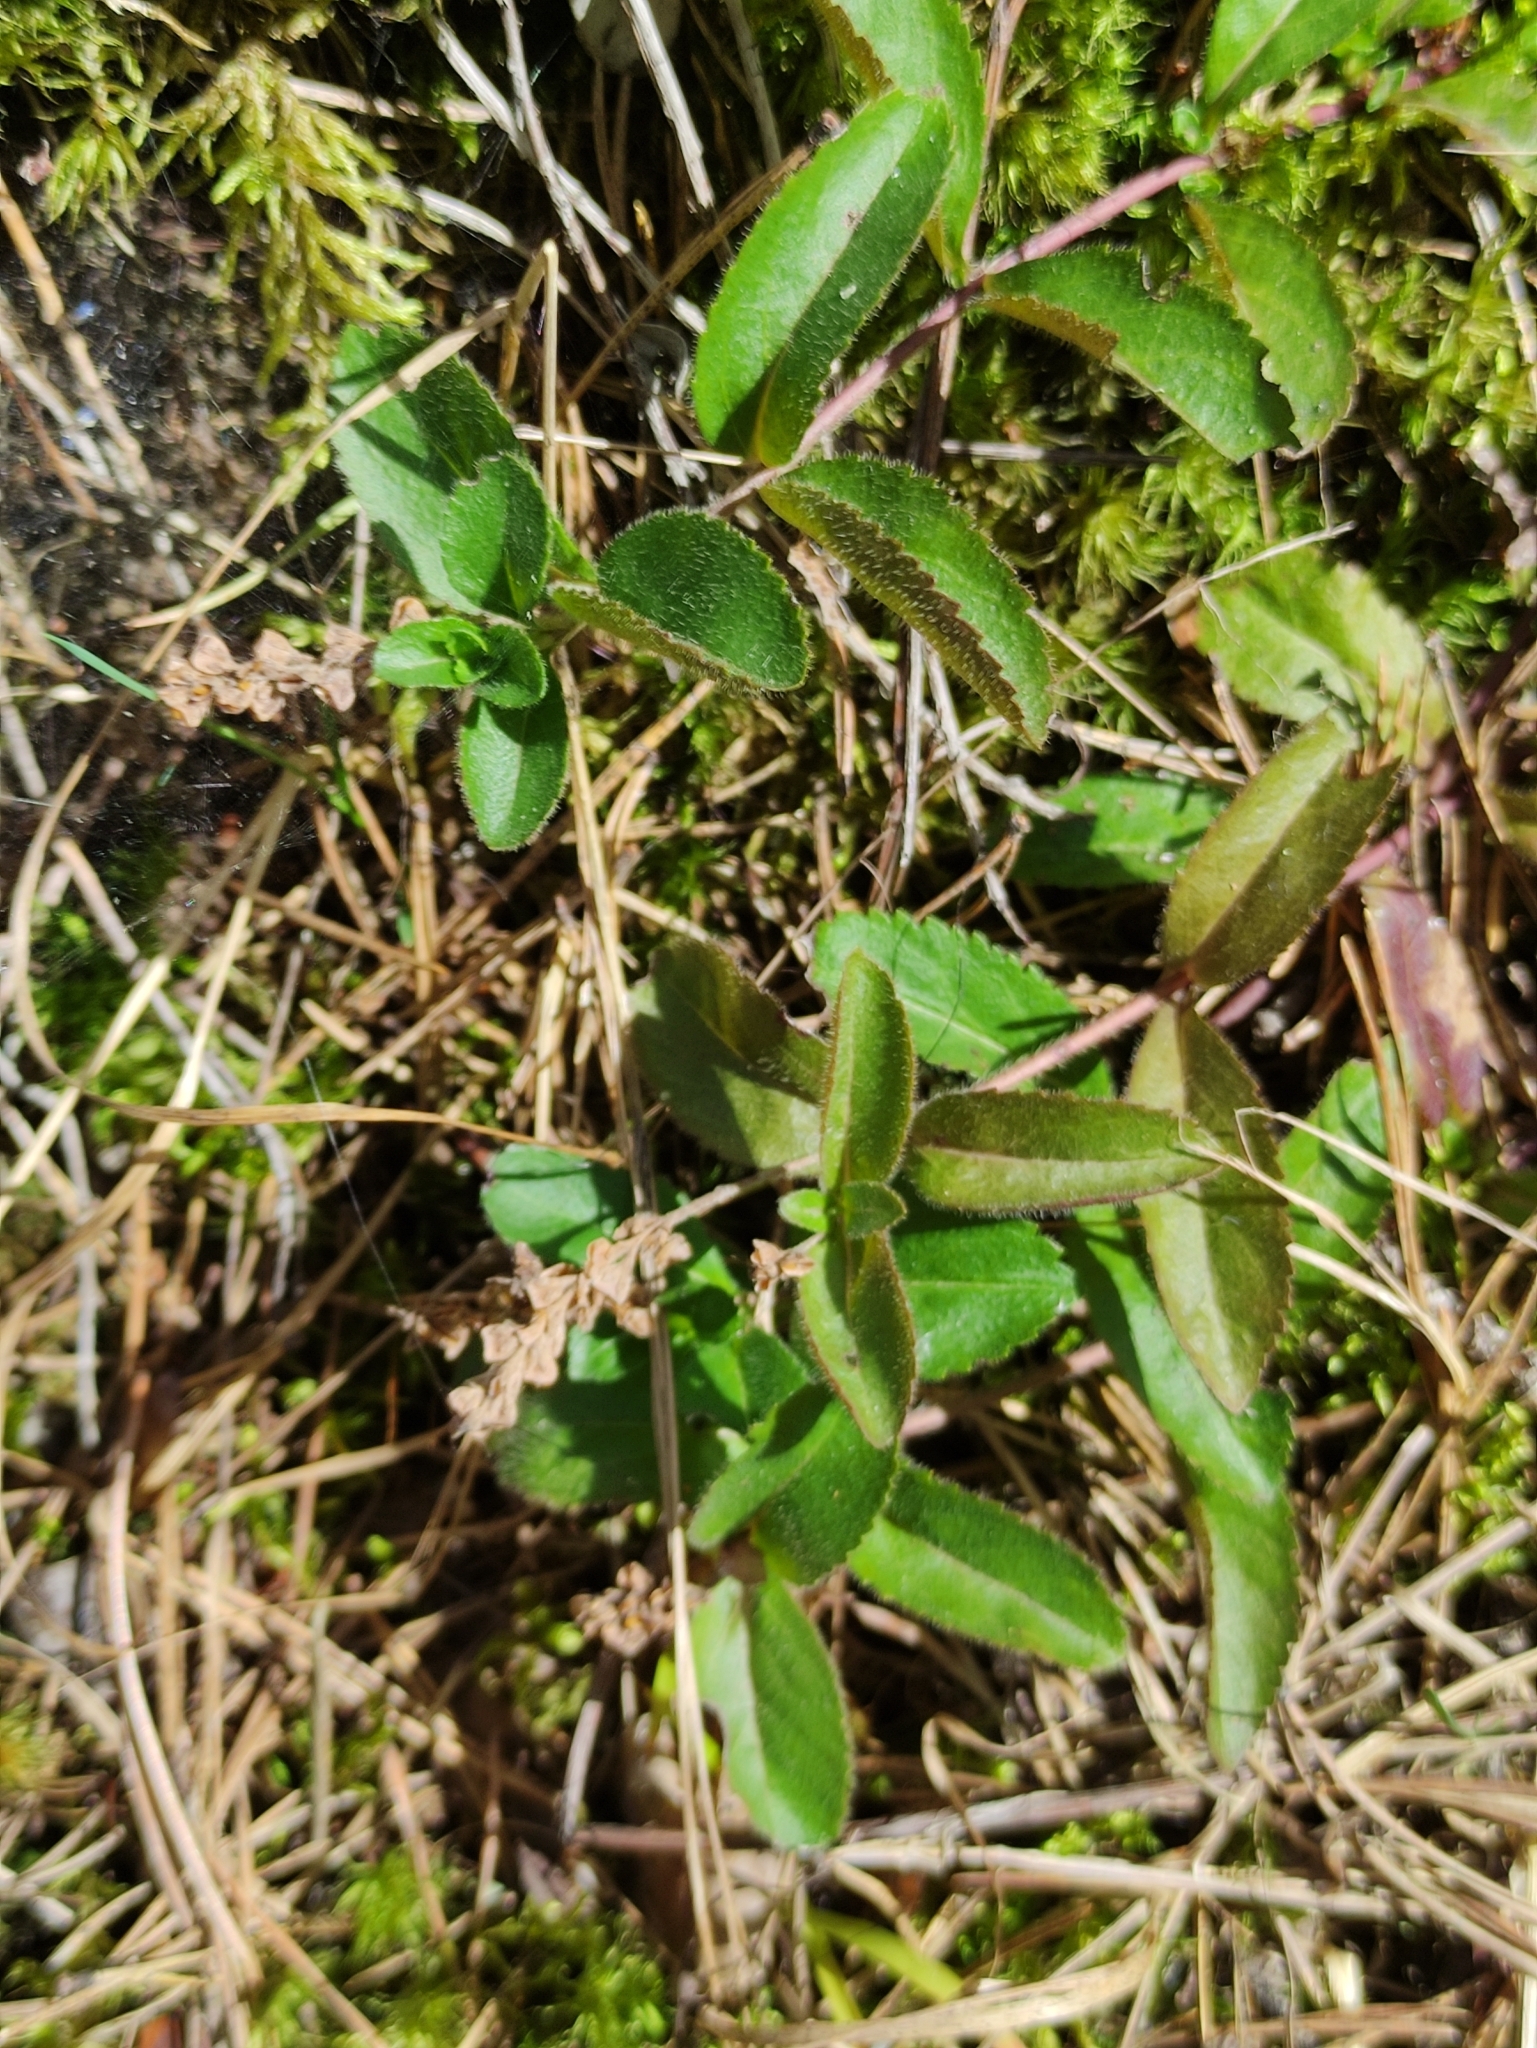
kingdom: Plantae
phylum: Tracheophyta
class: Magnoliopsida
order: Lamiales
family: Plantaginaceae
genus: Veronica
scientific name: Veronica officinalis
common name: Common speedwell
